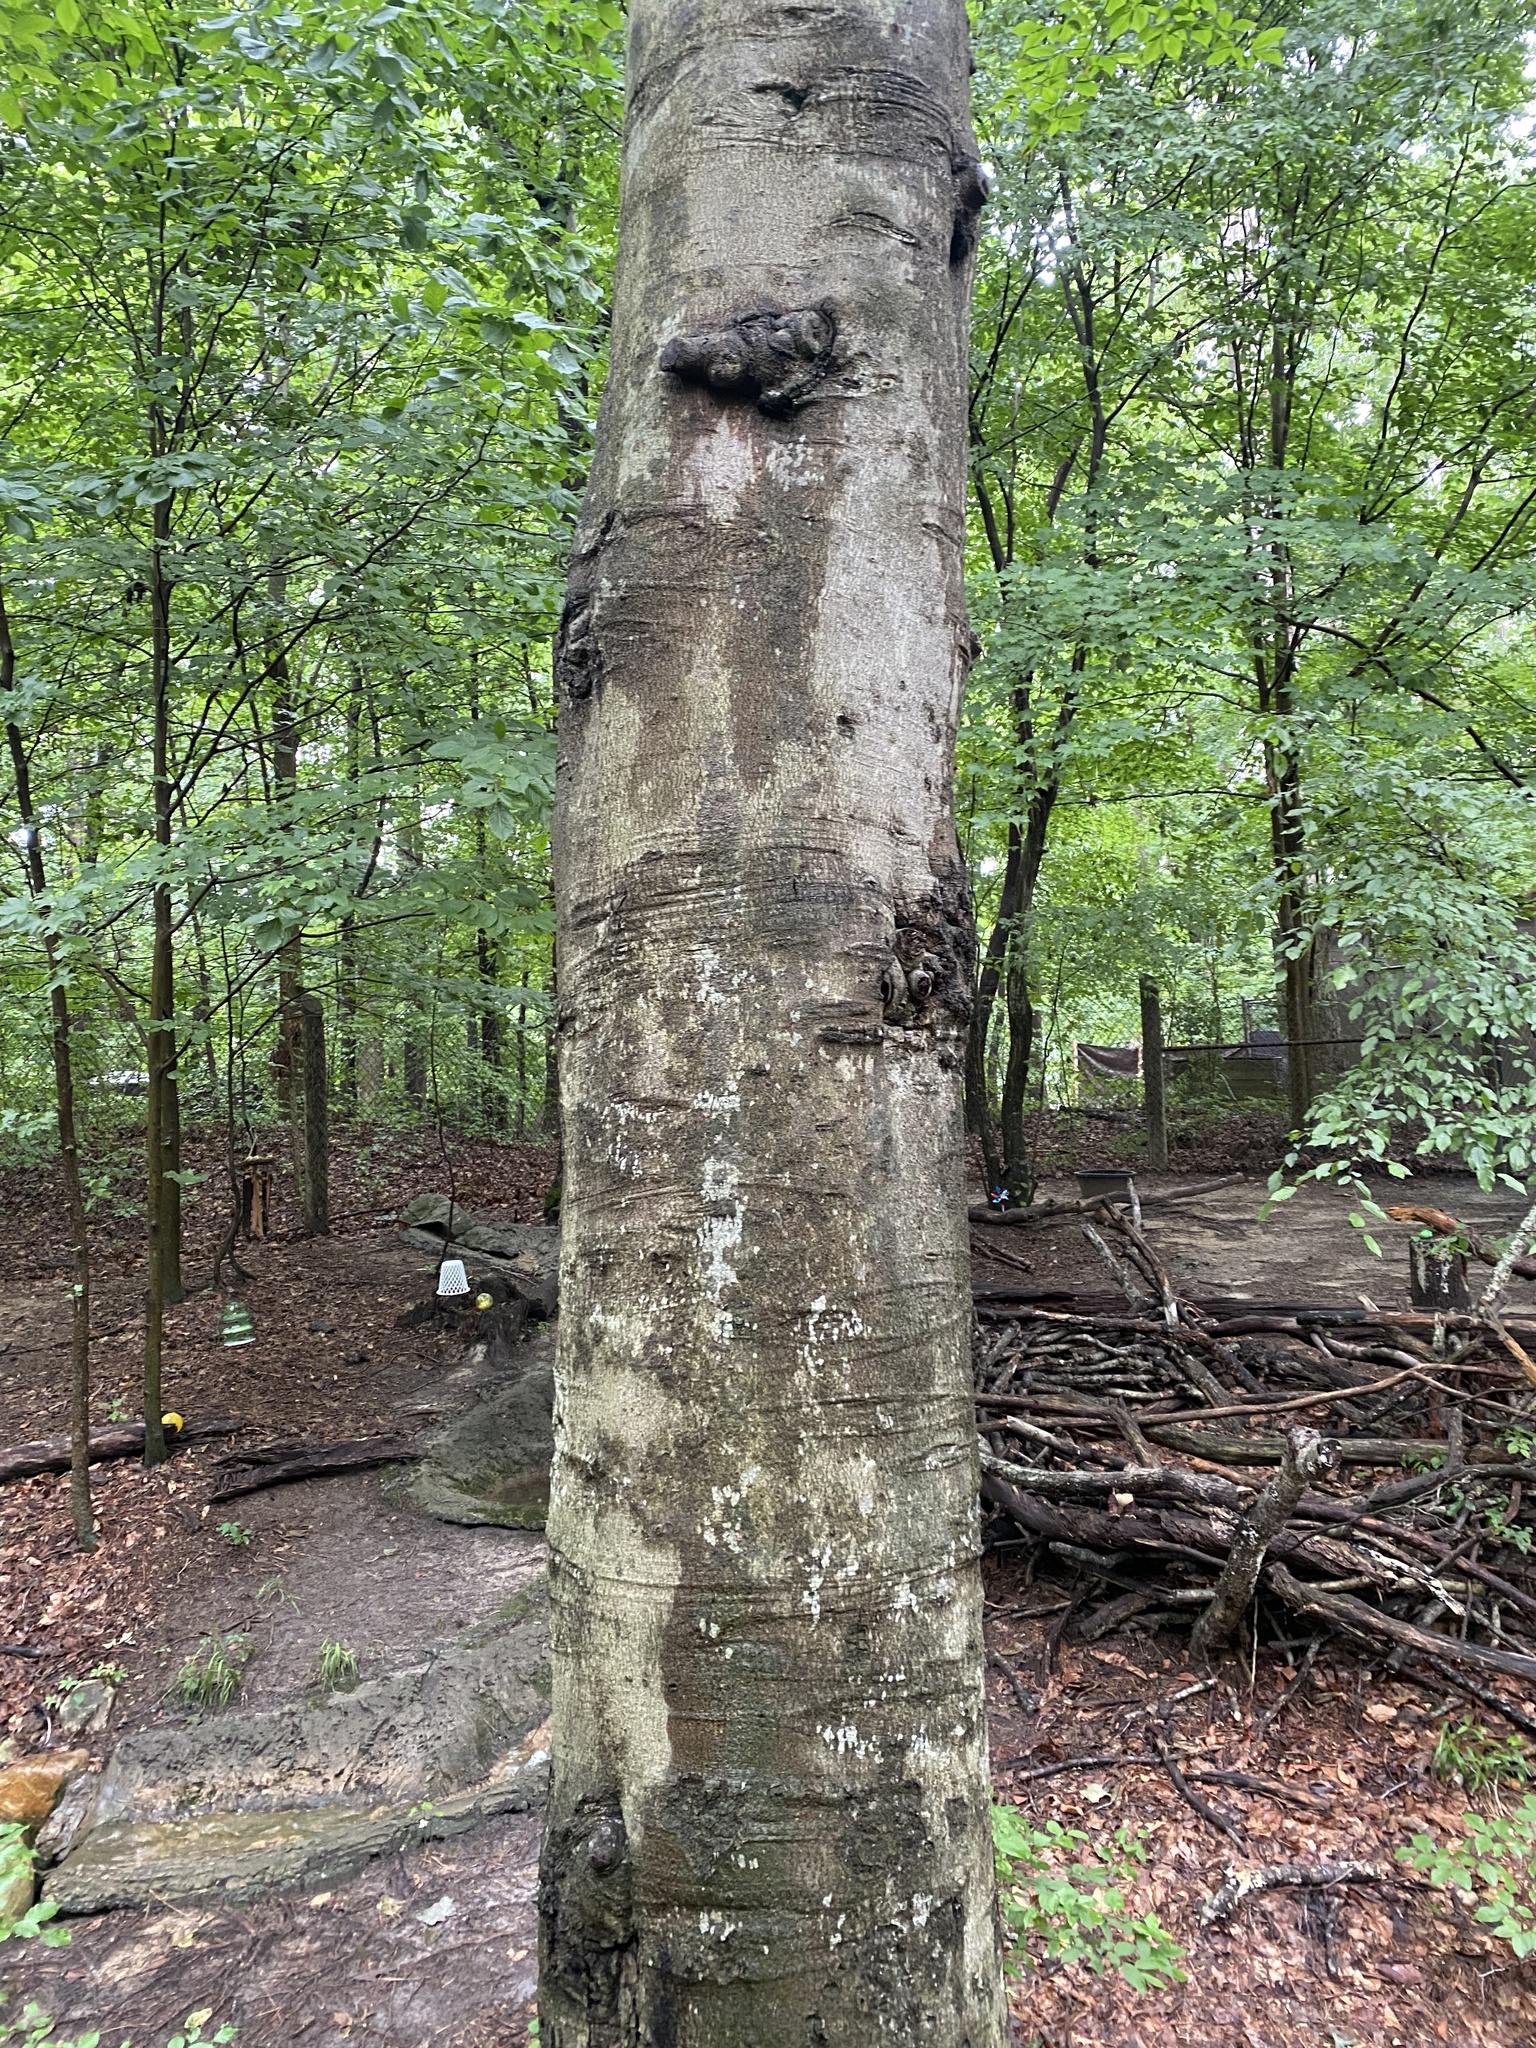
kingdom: Plantae
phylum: Tracheophyta
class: Magnoliopsida
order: Fagales
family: Fagaceae
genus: Fagus
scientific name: Fagus grandifolia
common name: American beech
